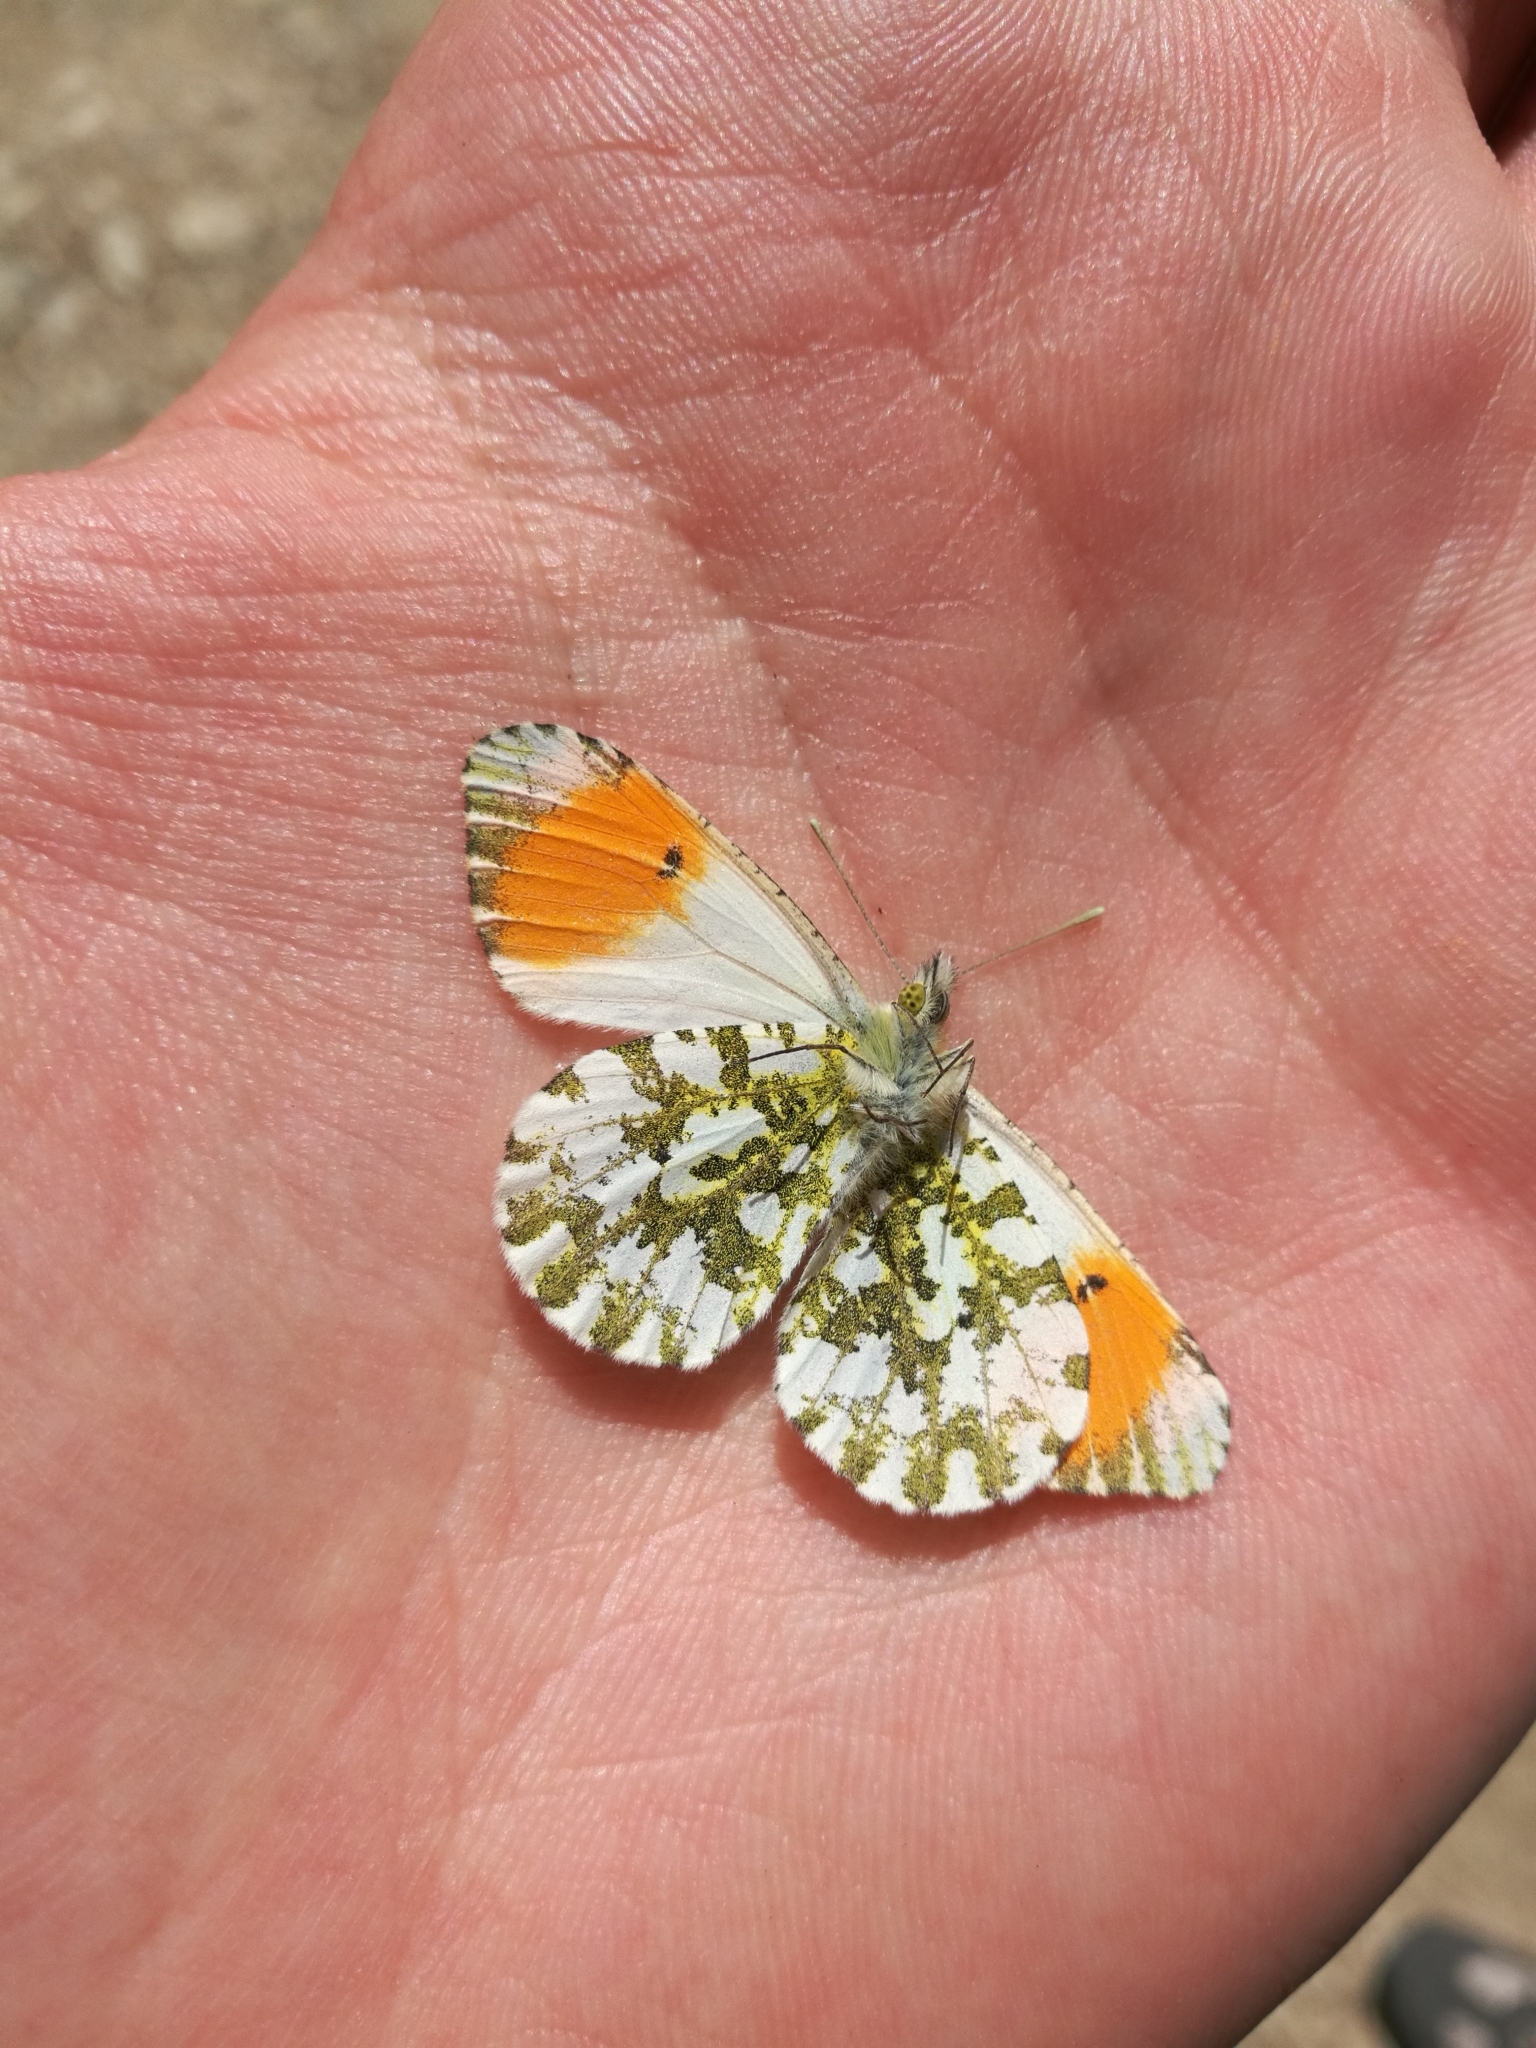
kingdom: Animalia
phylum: Arthropoda
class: Insecta
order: Lepidoptera
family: Pieridae
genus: Anthocharis
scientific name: Anthocharis cardamines
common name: Orange-tip
